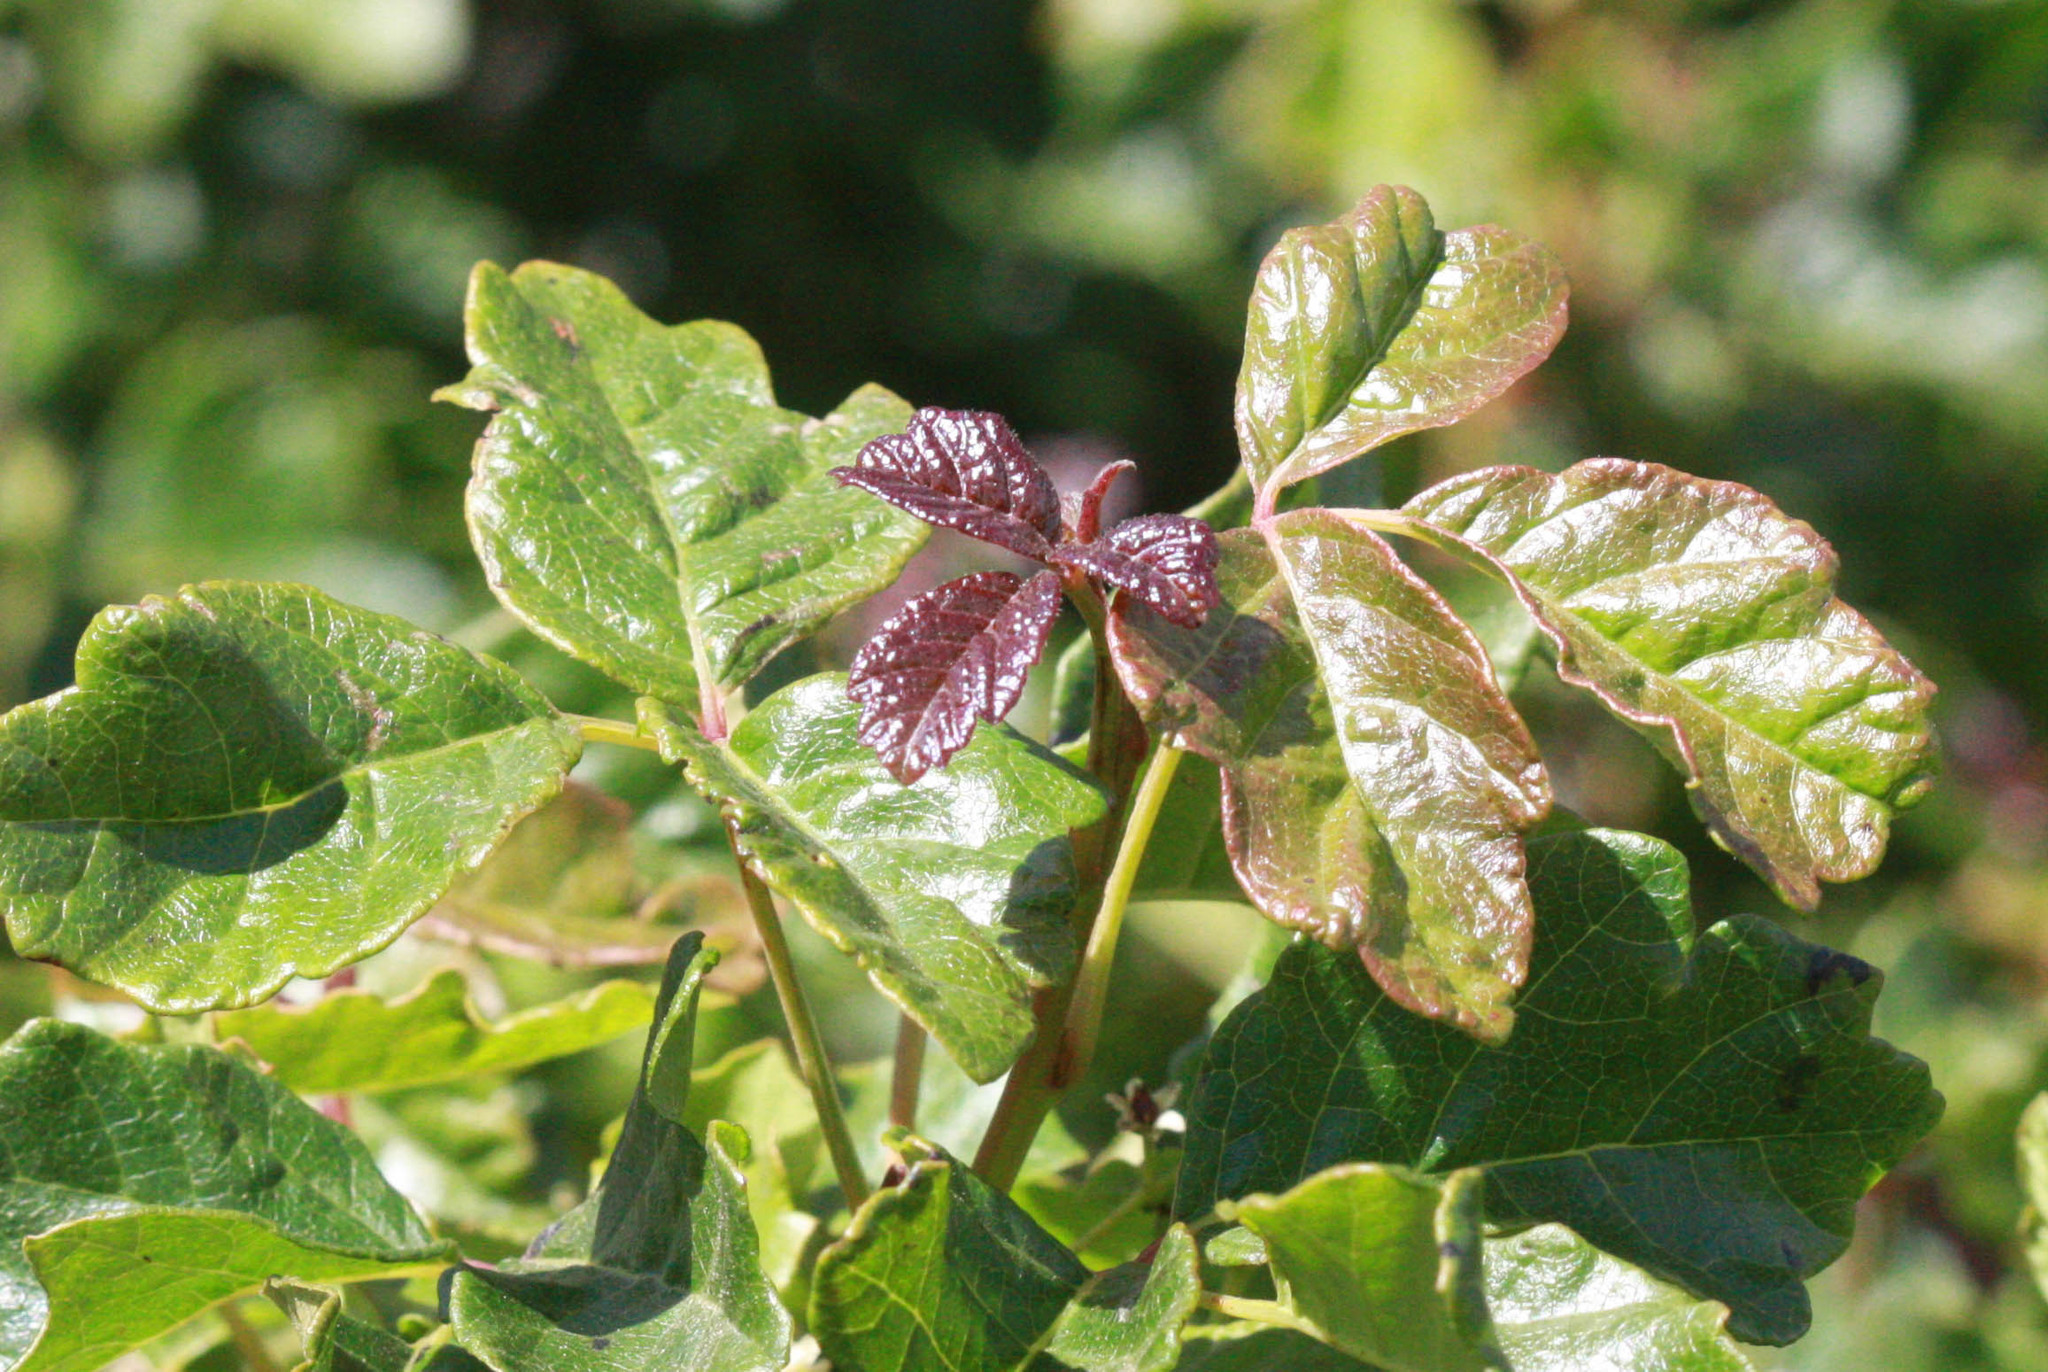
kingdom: Plantae
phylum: Tracheophyta
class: Magnoliopsida
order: Sapindales
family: Anacardiaceae
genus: Toxicodendron
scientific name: Toxicodendron diversilobum
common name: Pacific poison-oak
